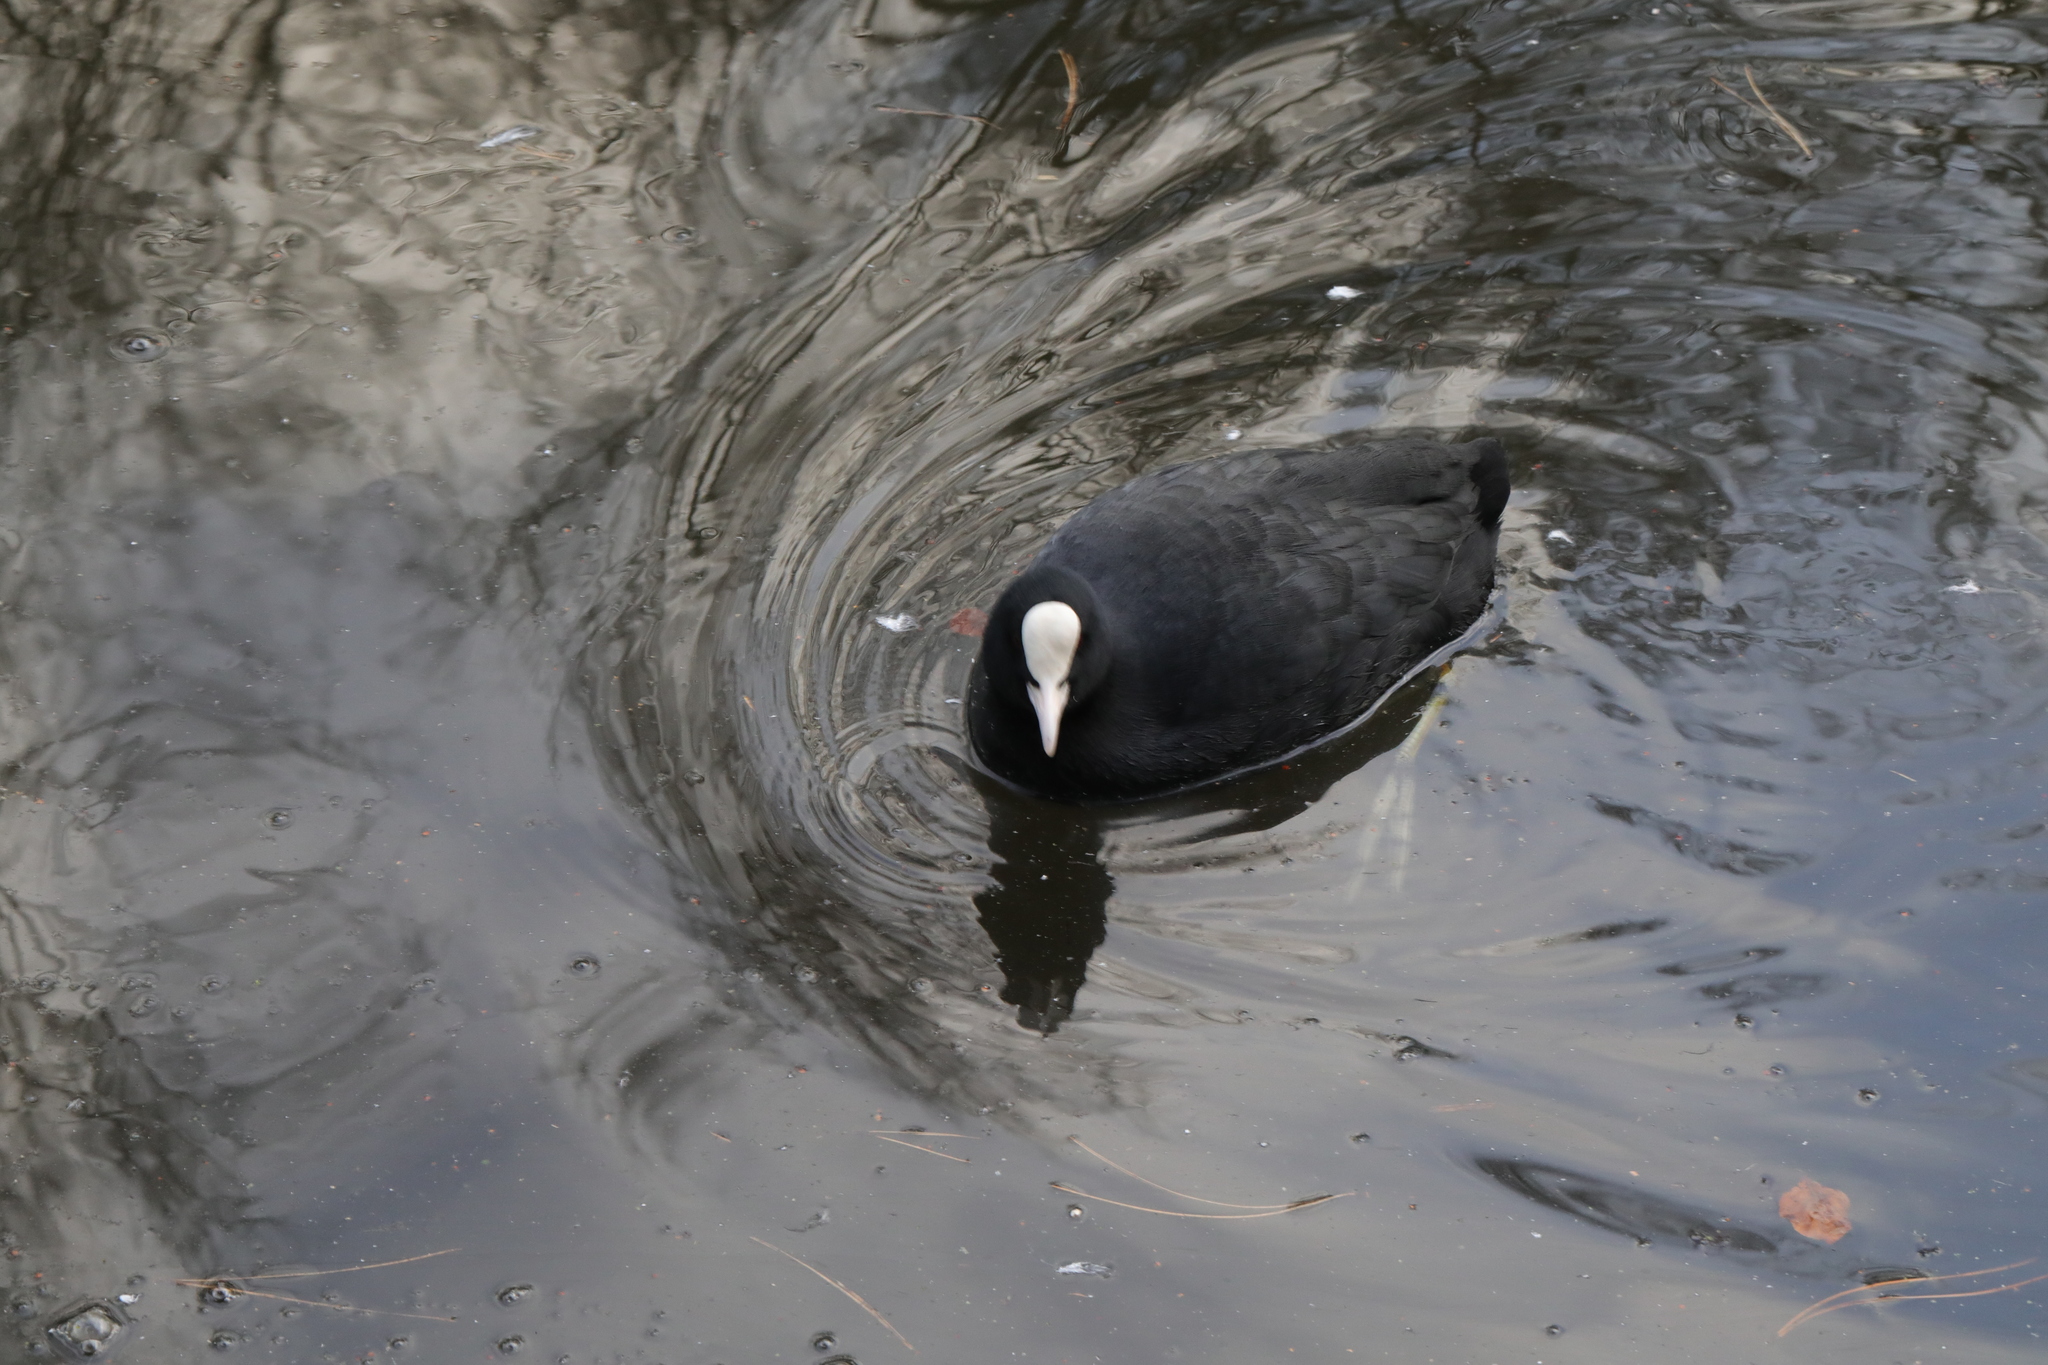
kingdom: Animalia
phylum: Chordata
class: Aves
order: Gruiformes
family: Rallidae
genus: Fulica
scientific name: Fulica atra
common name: Eurasian coot
